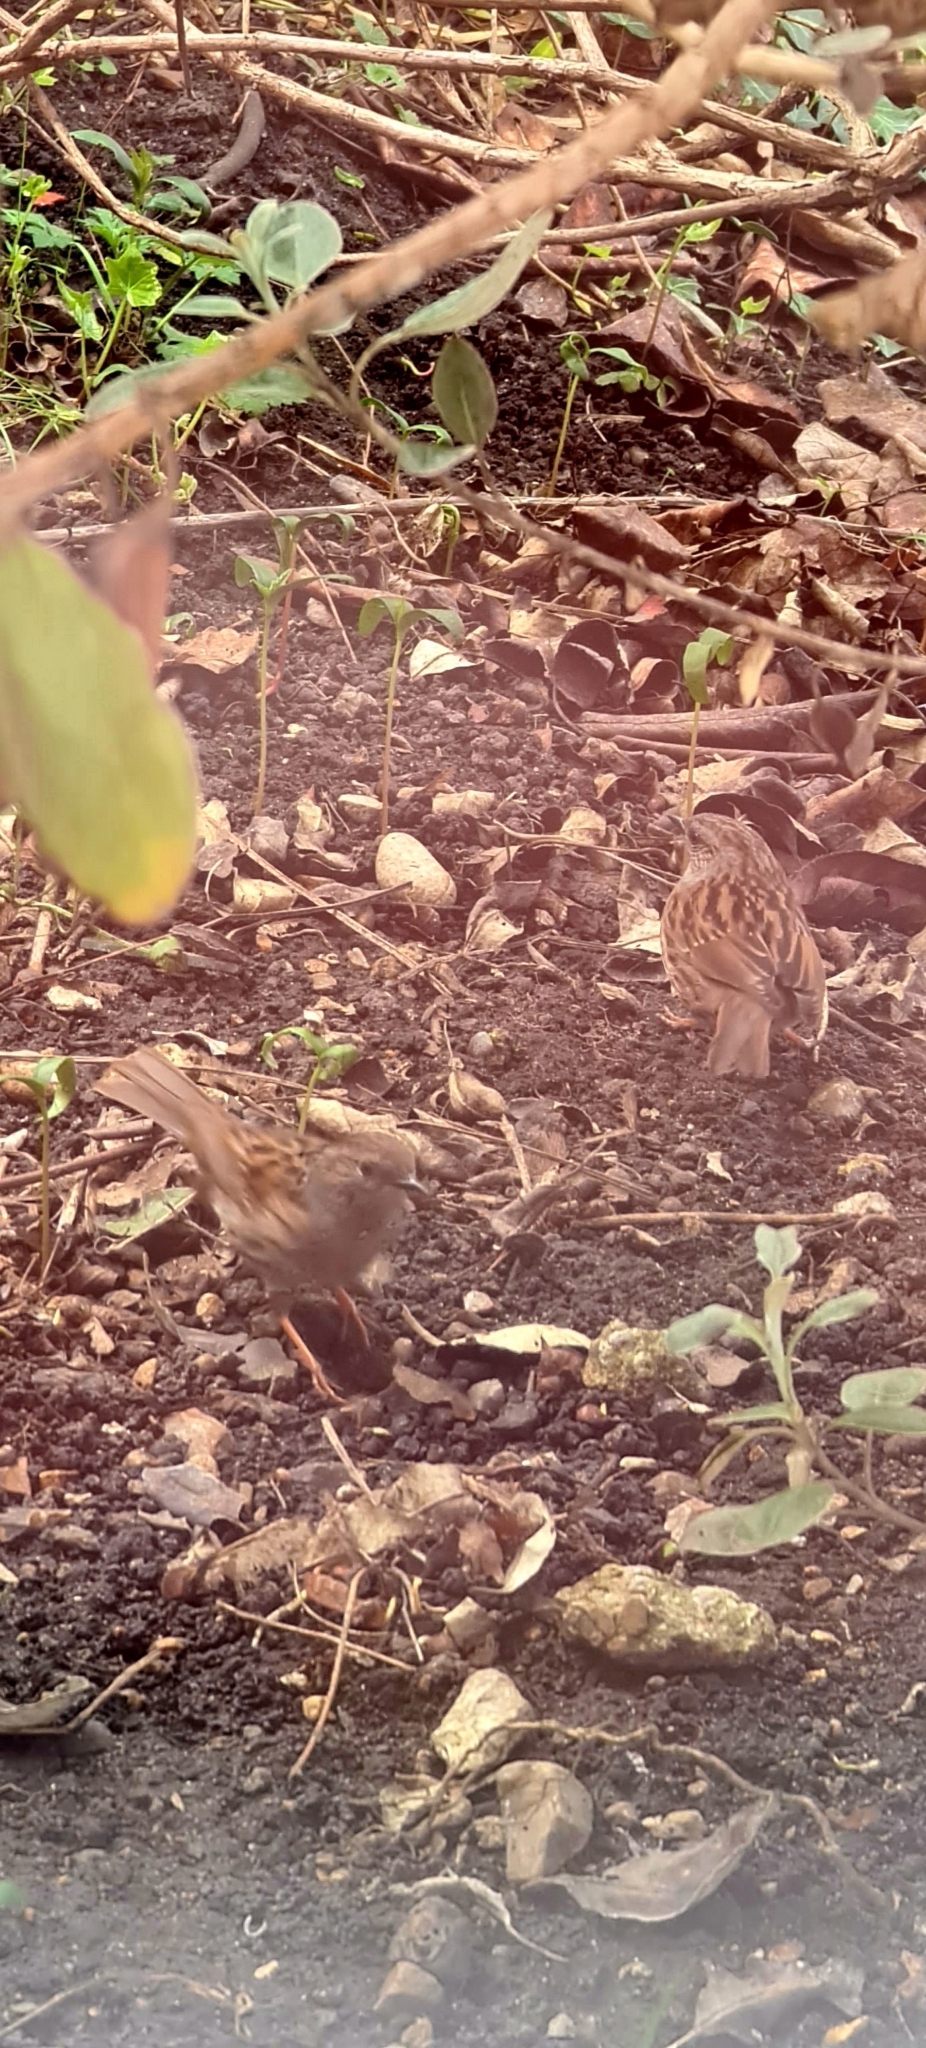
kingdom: Animalia
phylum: Chordata
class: Aves
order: Passeriformes
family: Prunellidae
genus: Prunella
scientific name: Prunella modularis
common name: Dunnock
